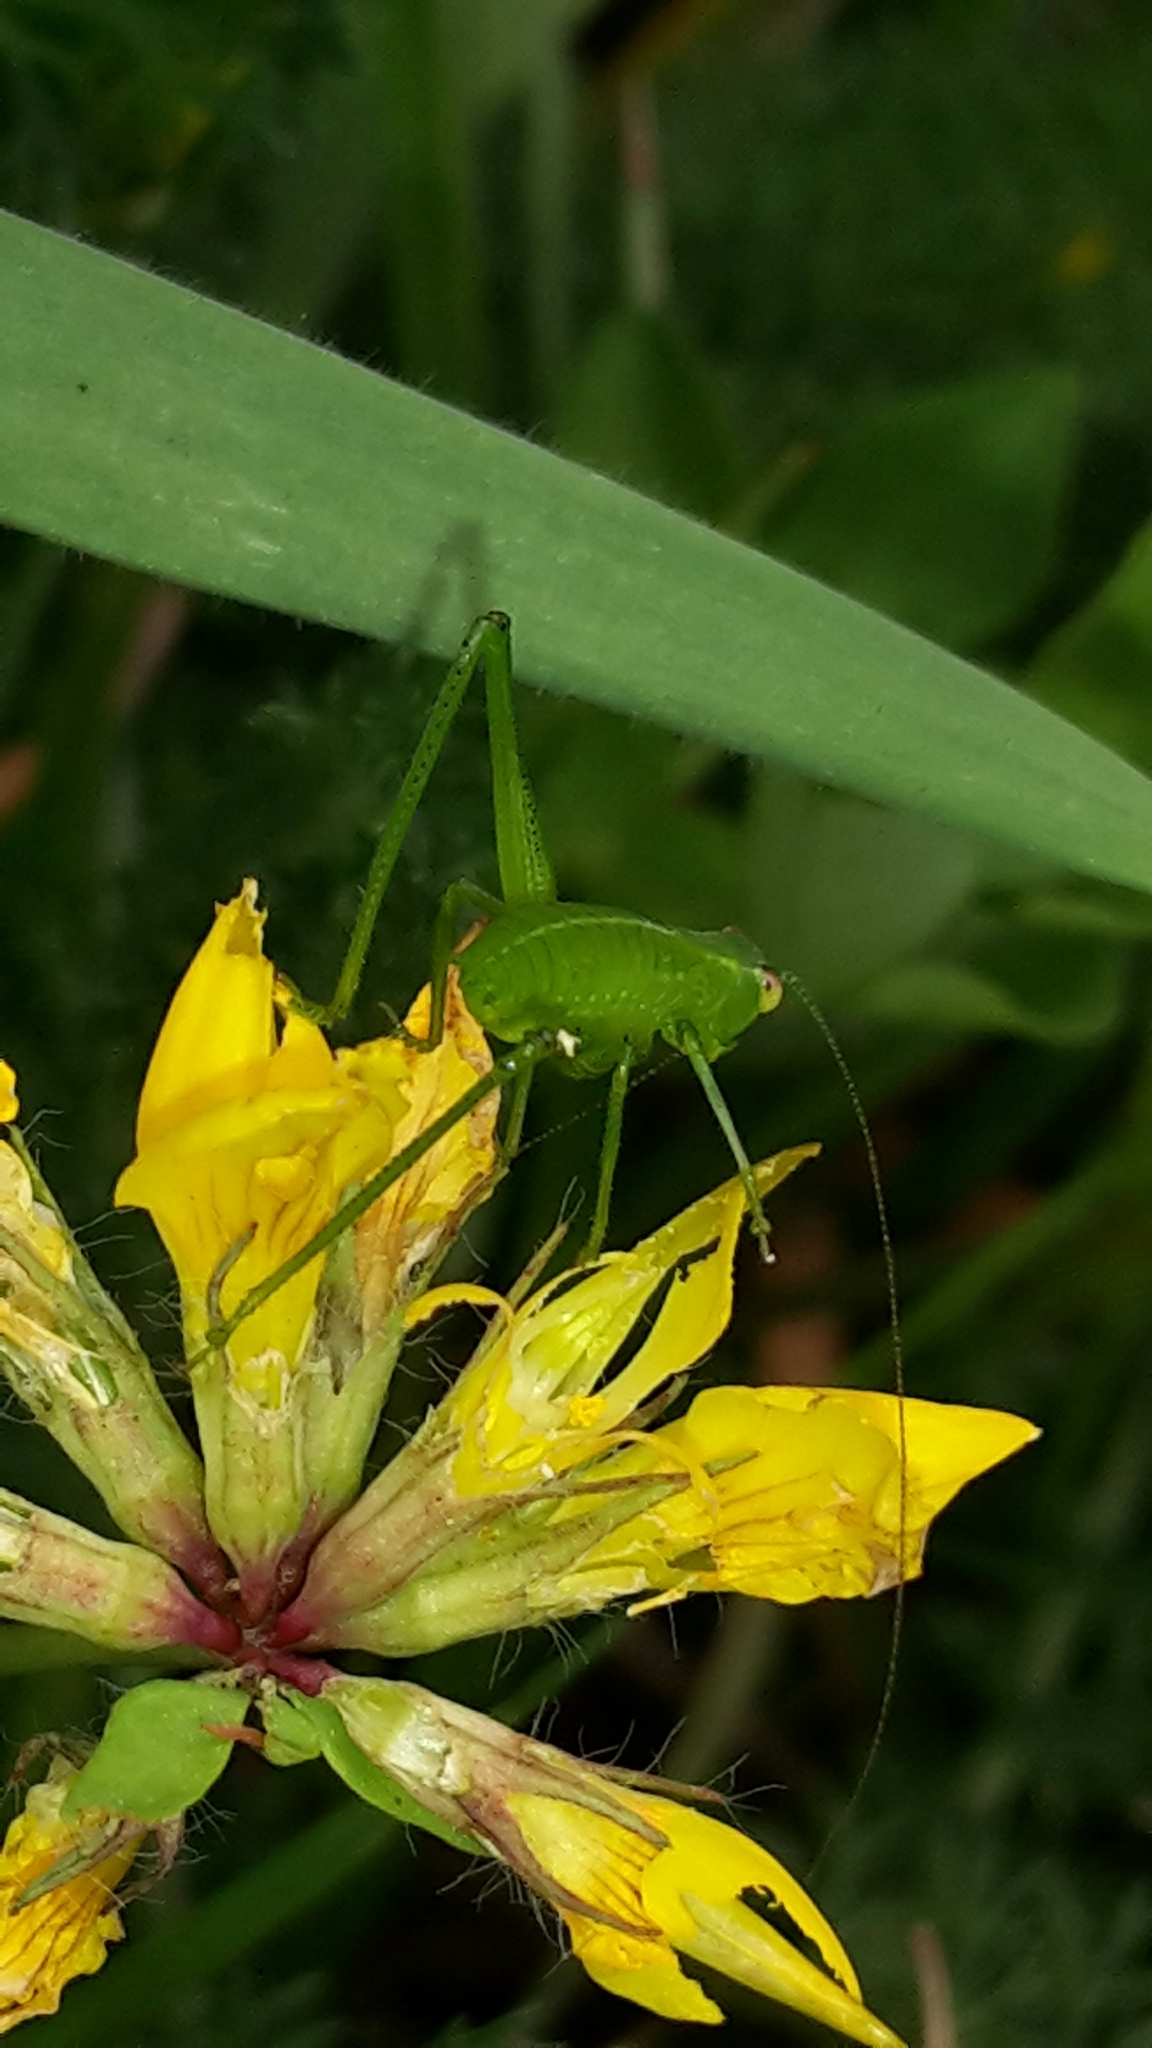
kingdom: Animalia
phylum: Arthropoda
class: Insecta
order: Orthoptera
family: Tettigoniidae
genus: Caedicia
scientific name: Caedicia simplex
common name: Common garden katydid
